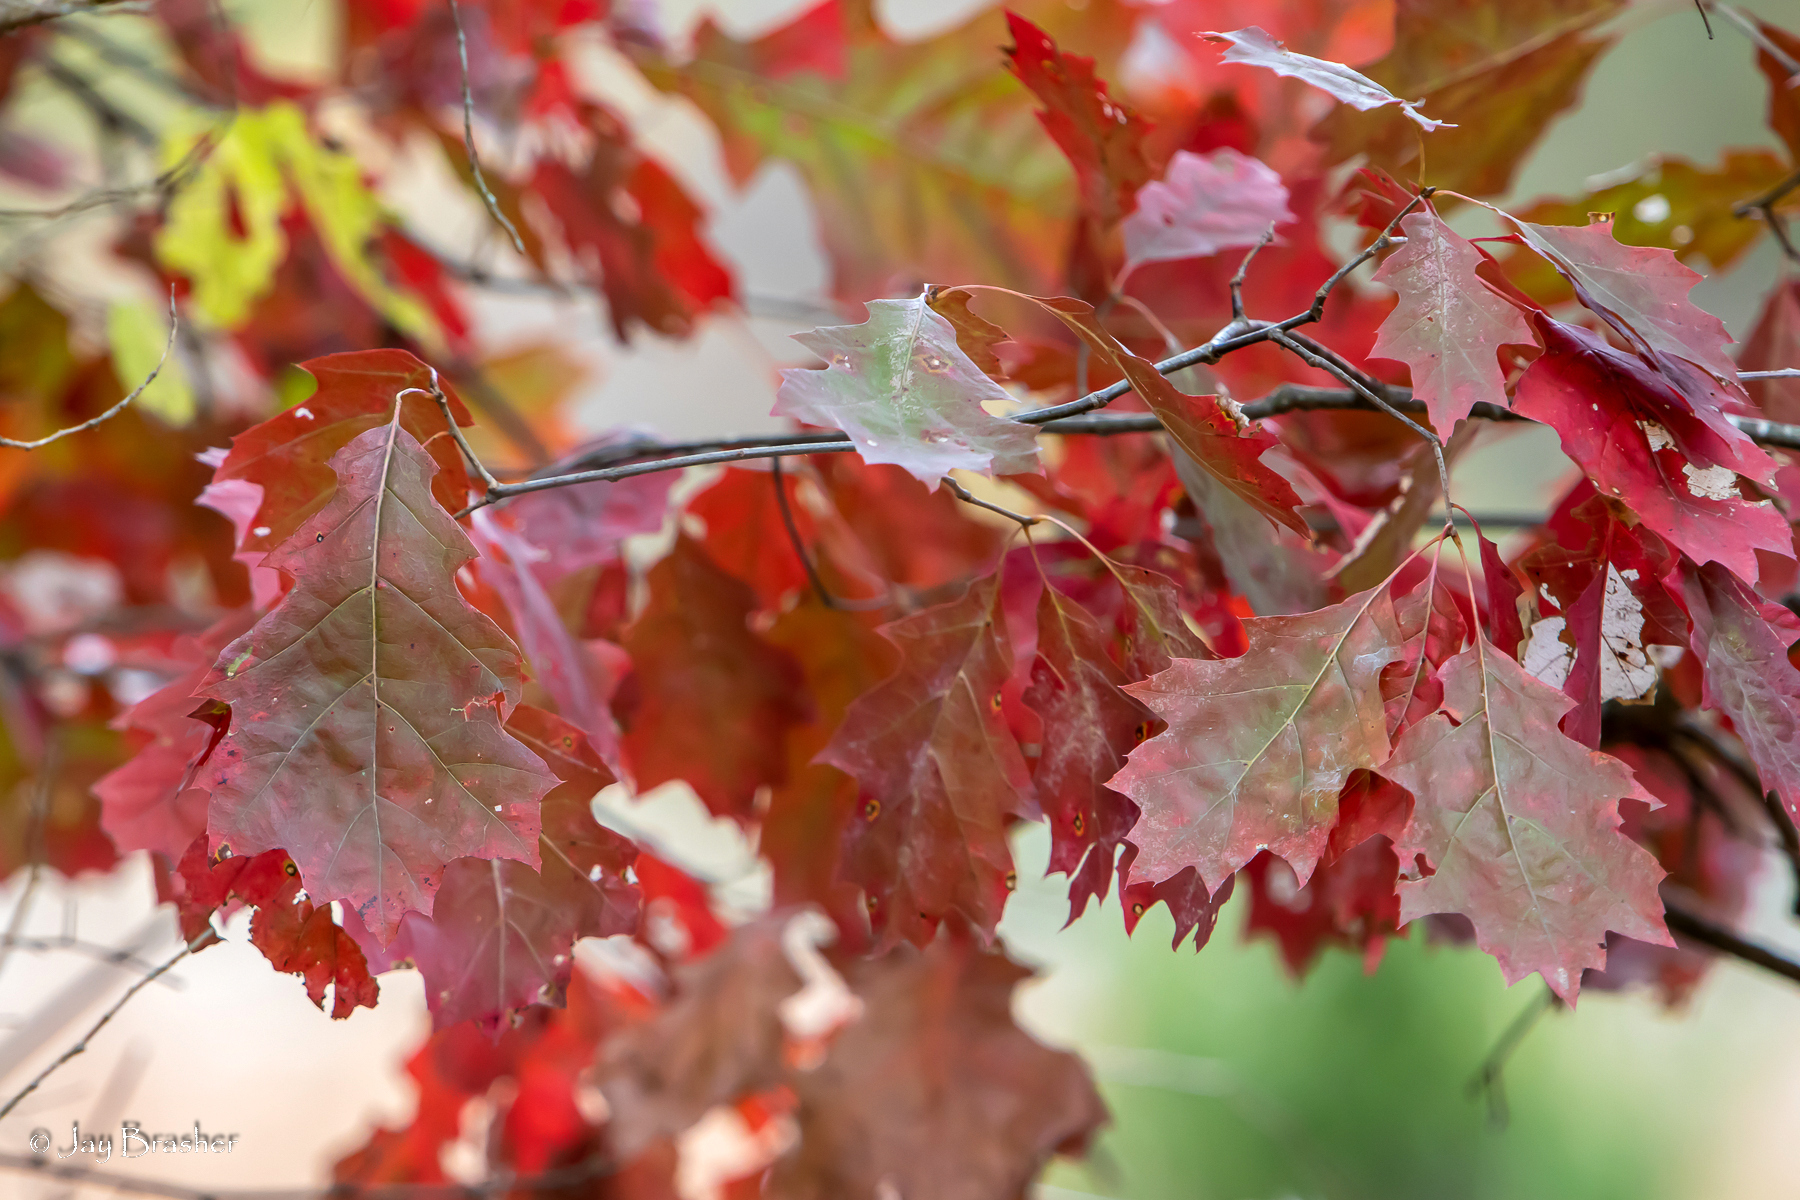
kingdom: Plantae
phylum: Tracheophyta
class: Magnoliopsida
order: Fagales
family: Fagaceae
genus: Quercus
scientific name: Quercus velutina
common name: Black oak
